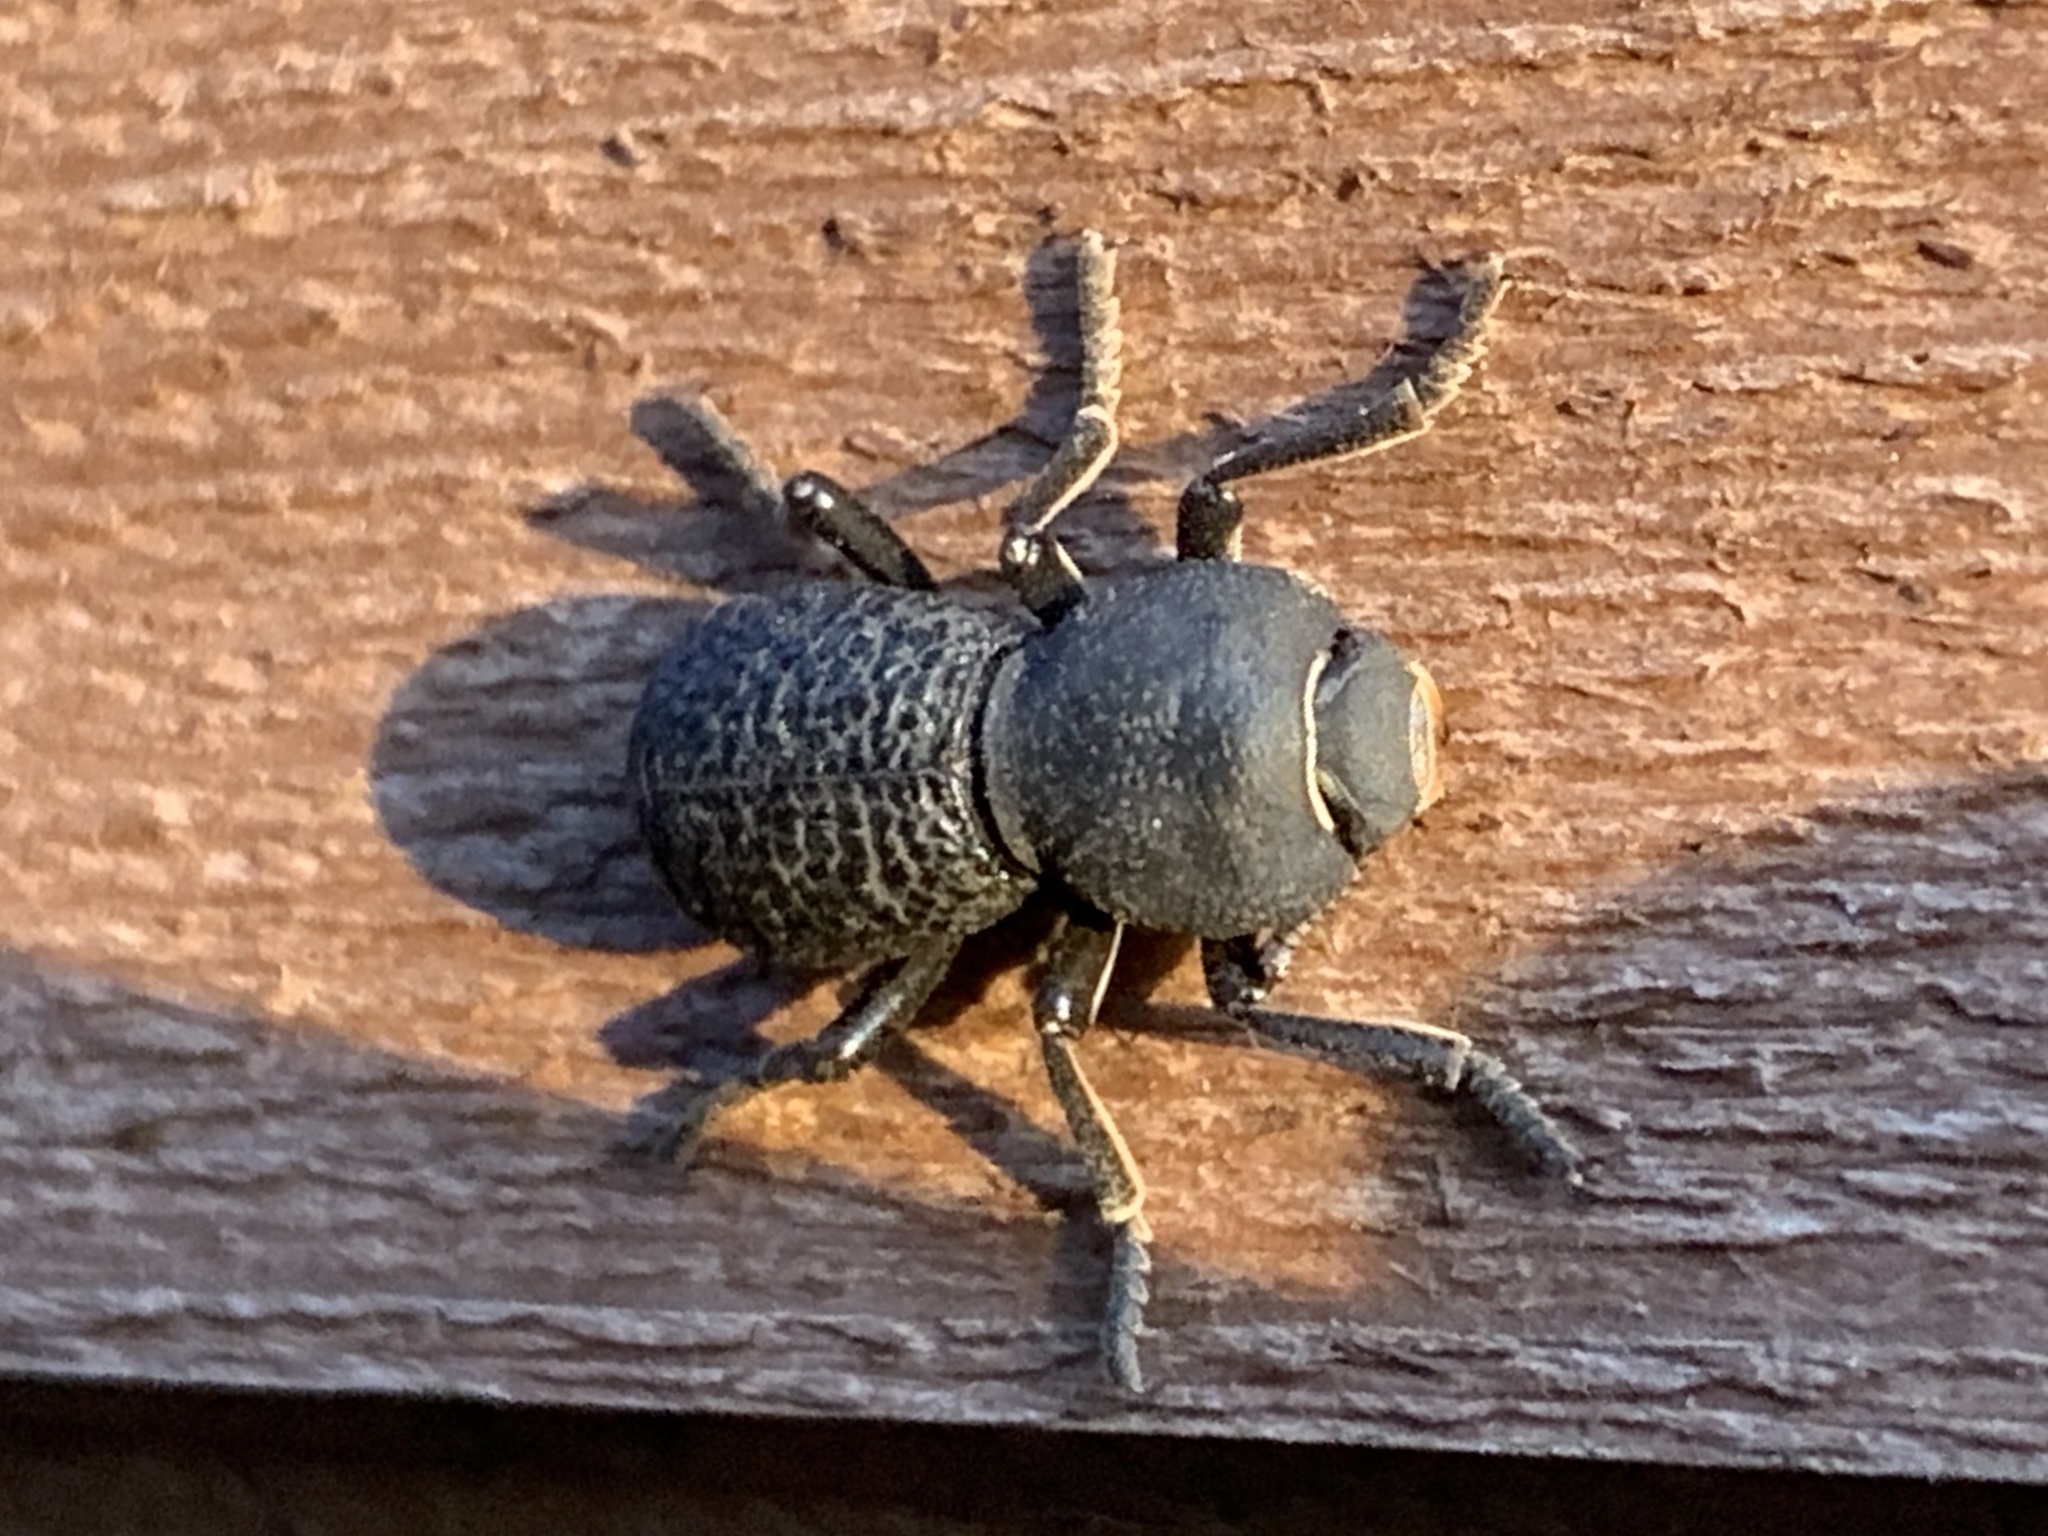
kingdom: Animalia
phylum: Arthropoda
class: Insecta
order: Coleoptera
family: Zopheridae
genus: Zopherus
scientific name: Zopherus concolor
